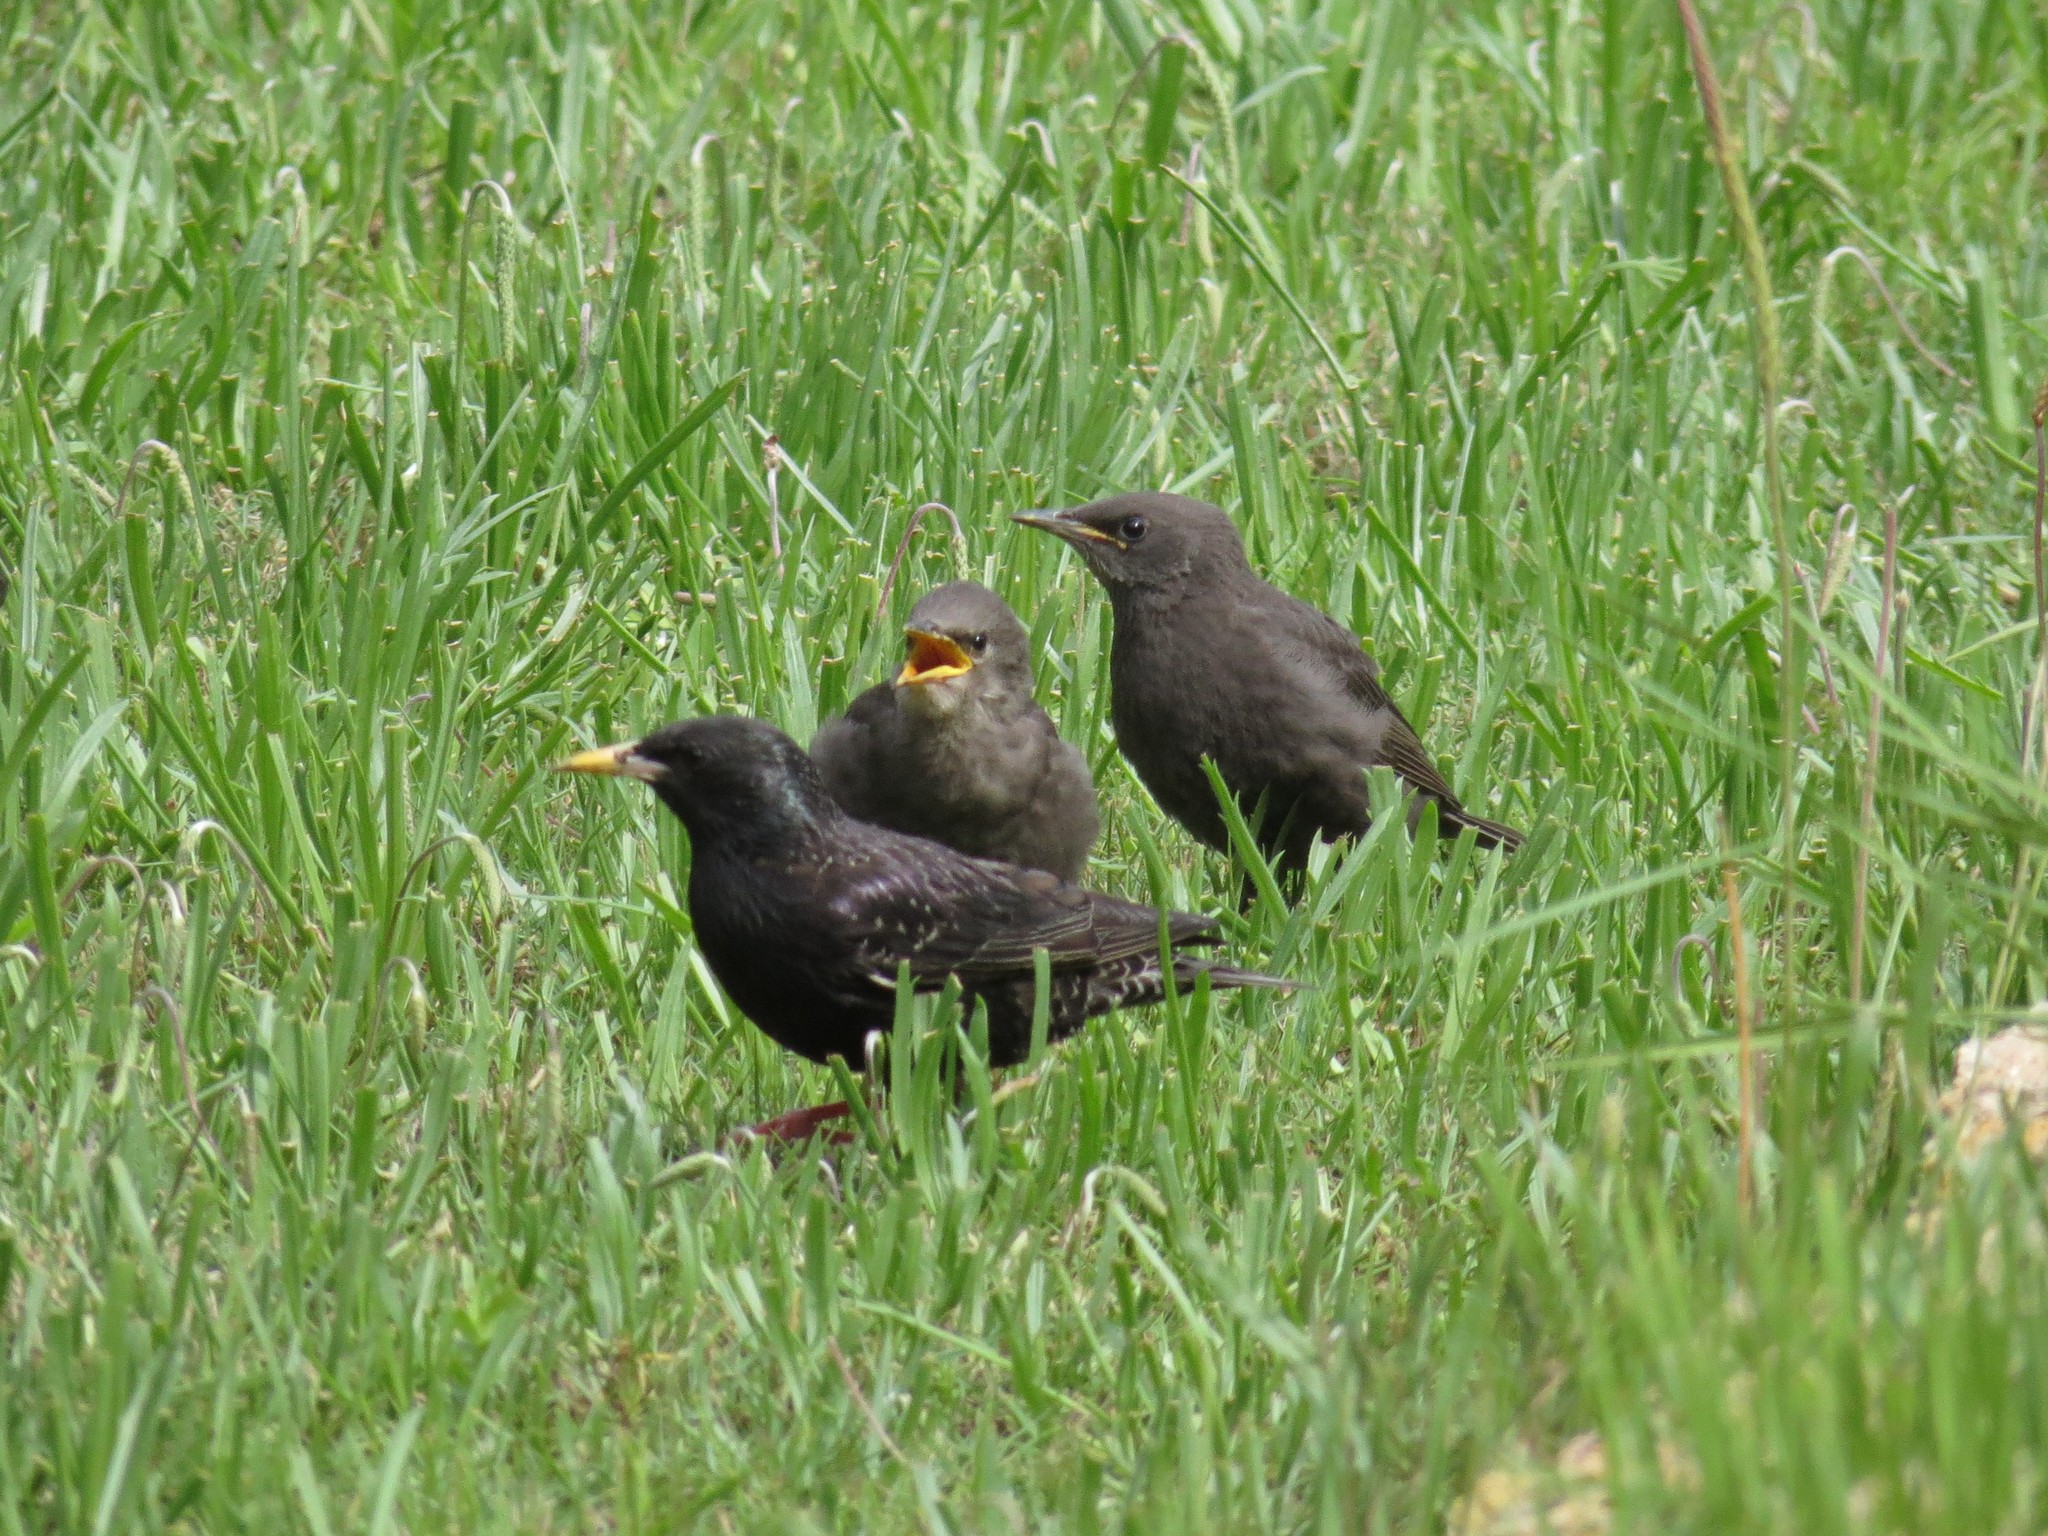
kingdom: Animalia
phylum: Chordata
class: Aves
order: Passeriformes
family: Sturnidae
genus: Sturnus
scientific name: Sturnus vulgaris
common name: Common starling
